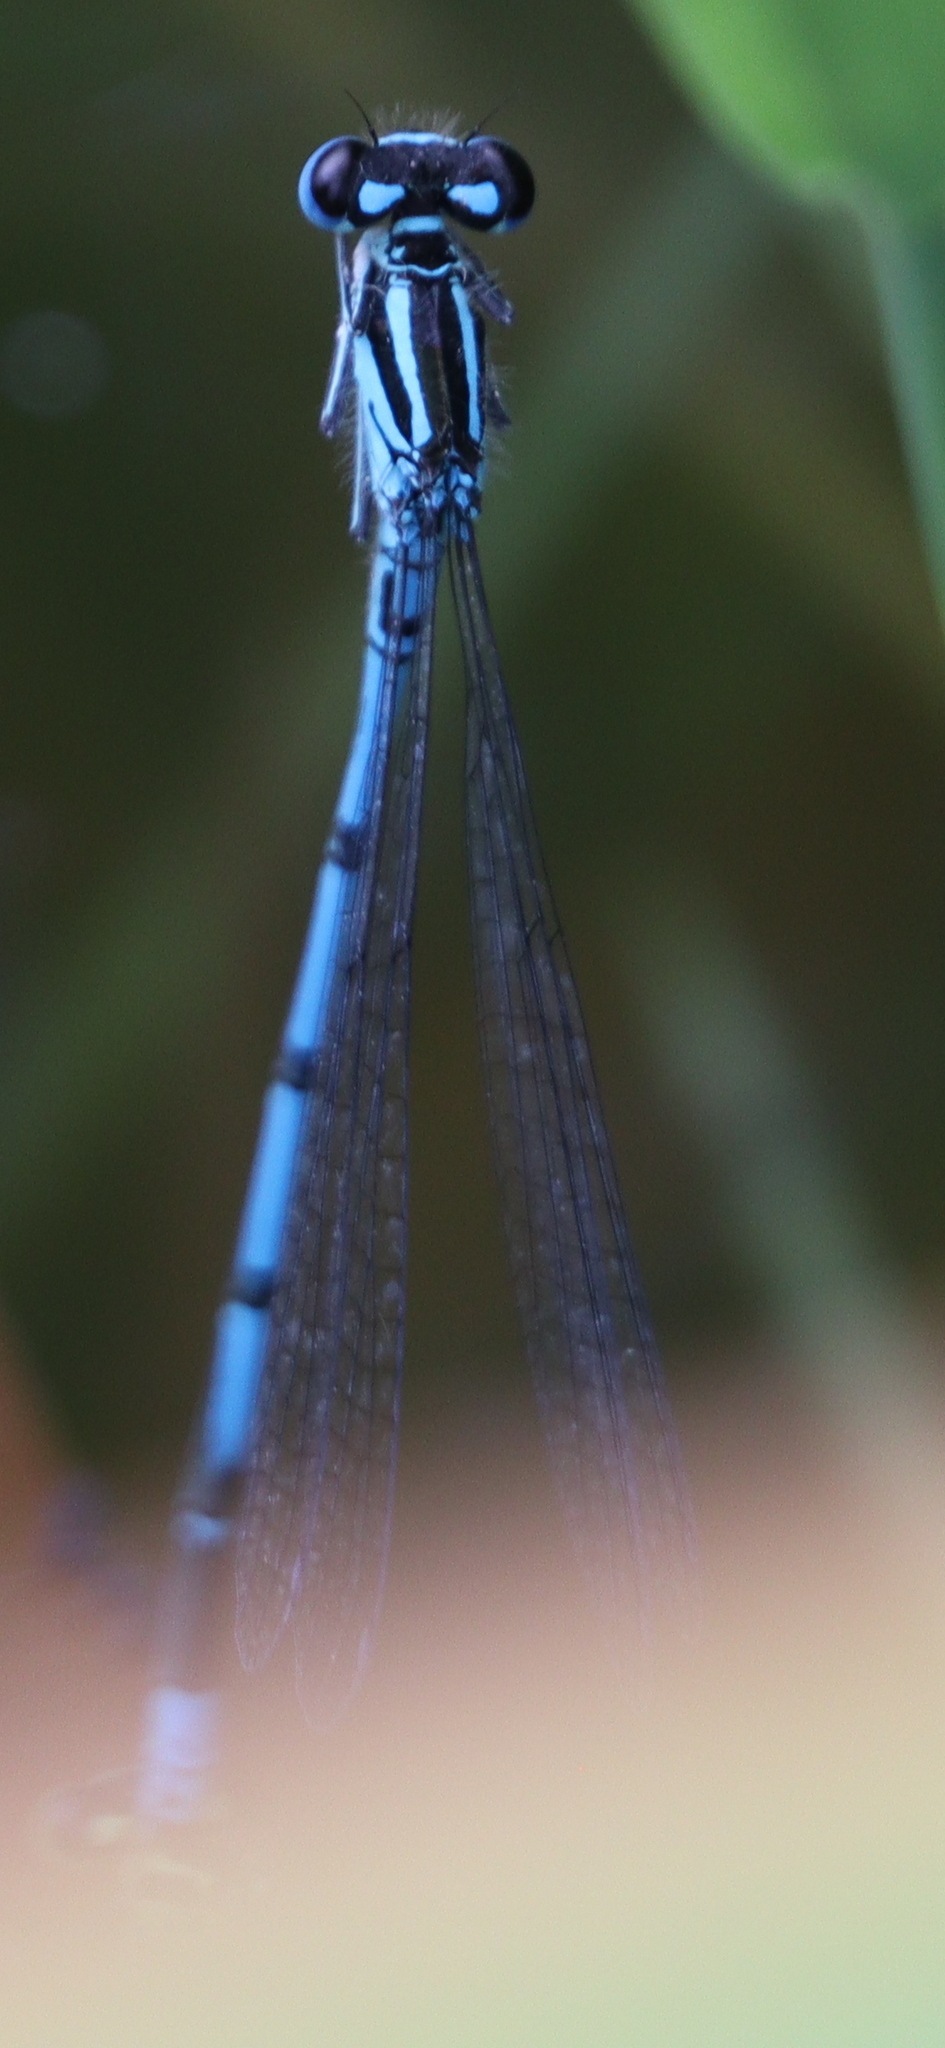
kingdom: Animalia
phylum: Arthropoda
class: Insecta
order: Odonata
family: Coenagrionidae
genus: Coenagrion
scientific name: Coenagrion puella
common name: Azure damselfly
